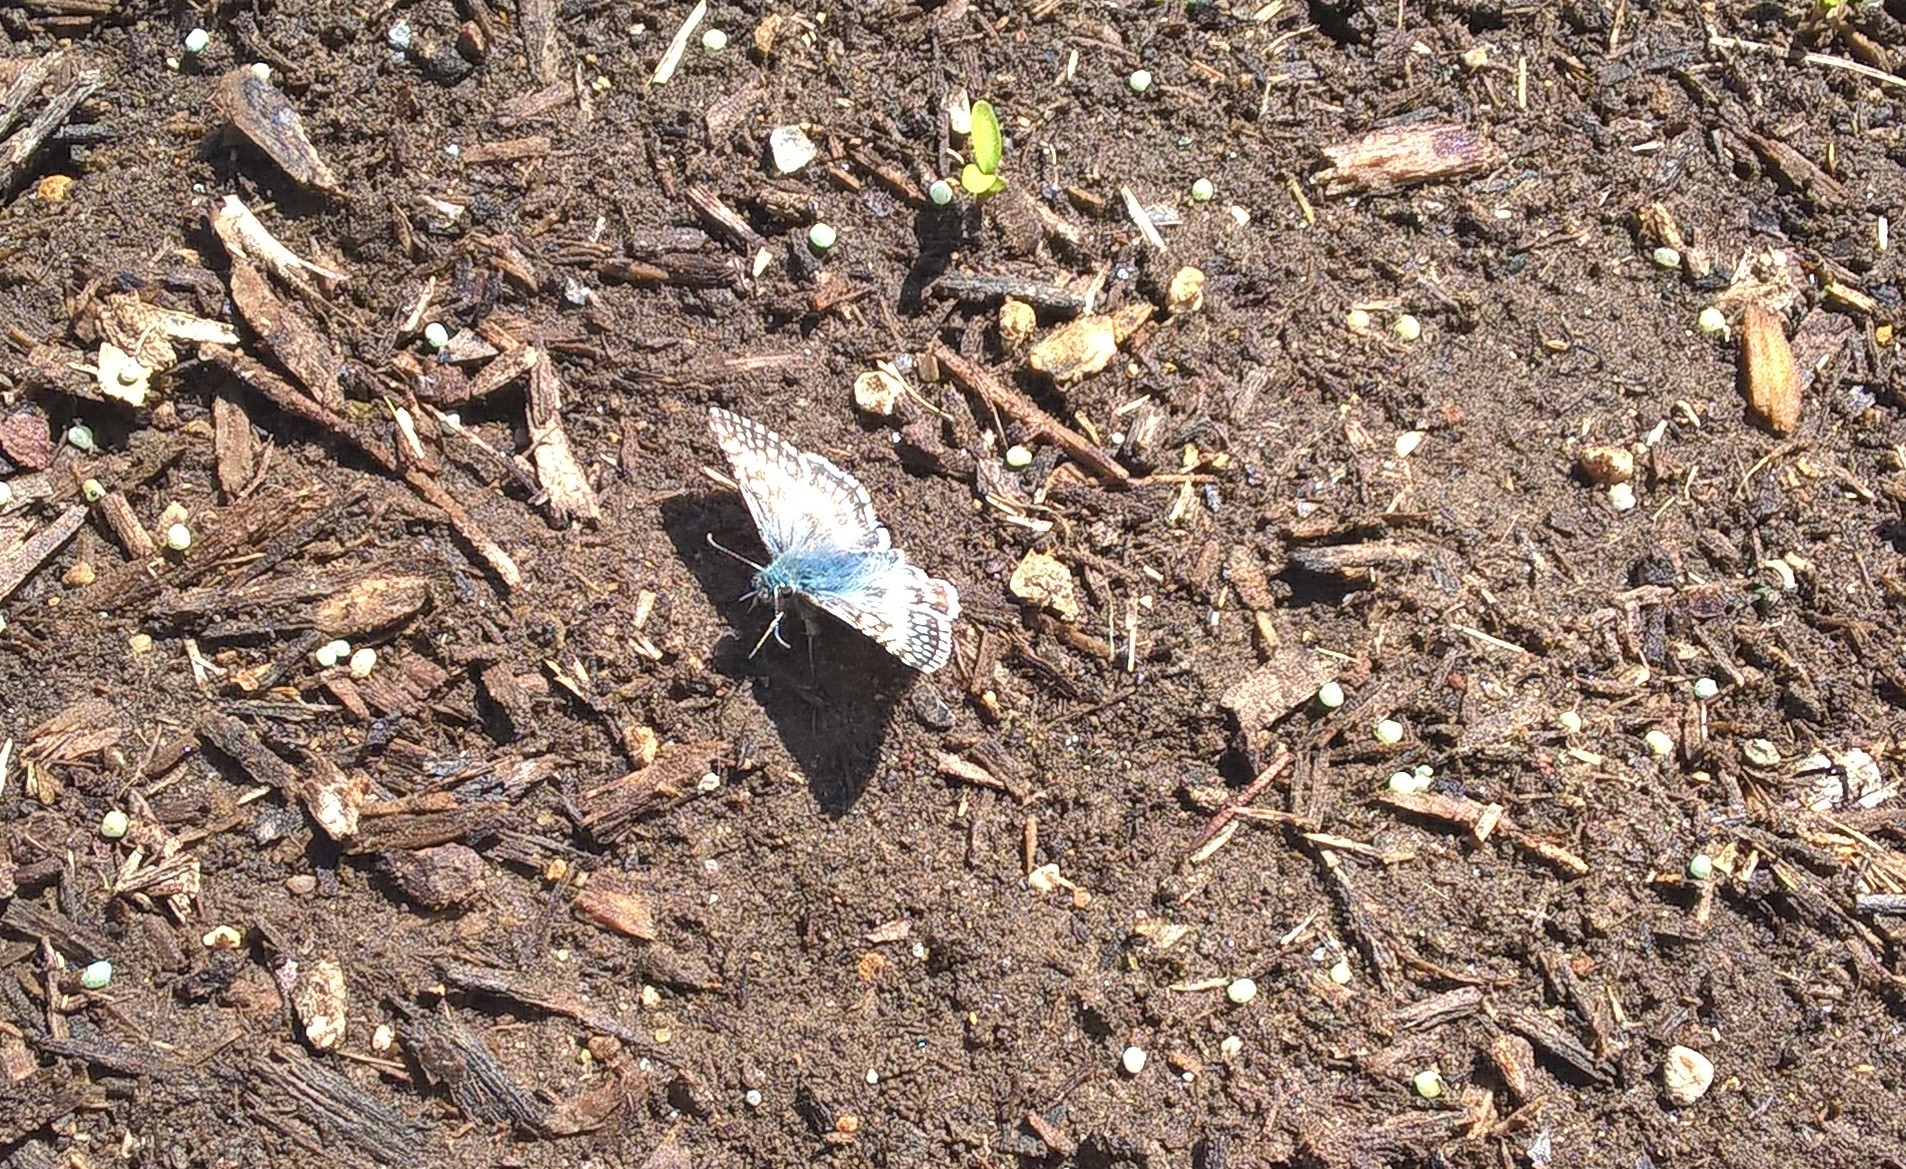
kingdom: Animalia
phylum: Arthropoda
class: Insecta
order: Lepidoptera
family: Hesperiidae
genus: Burnsius
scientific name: Burnsius communis
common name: Common checkered-skipper
